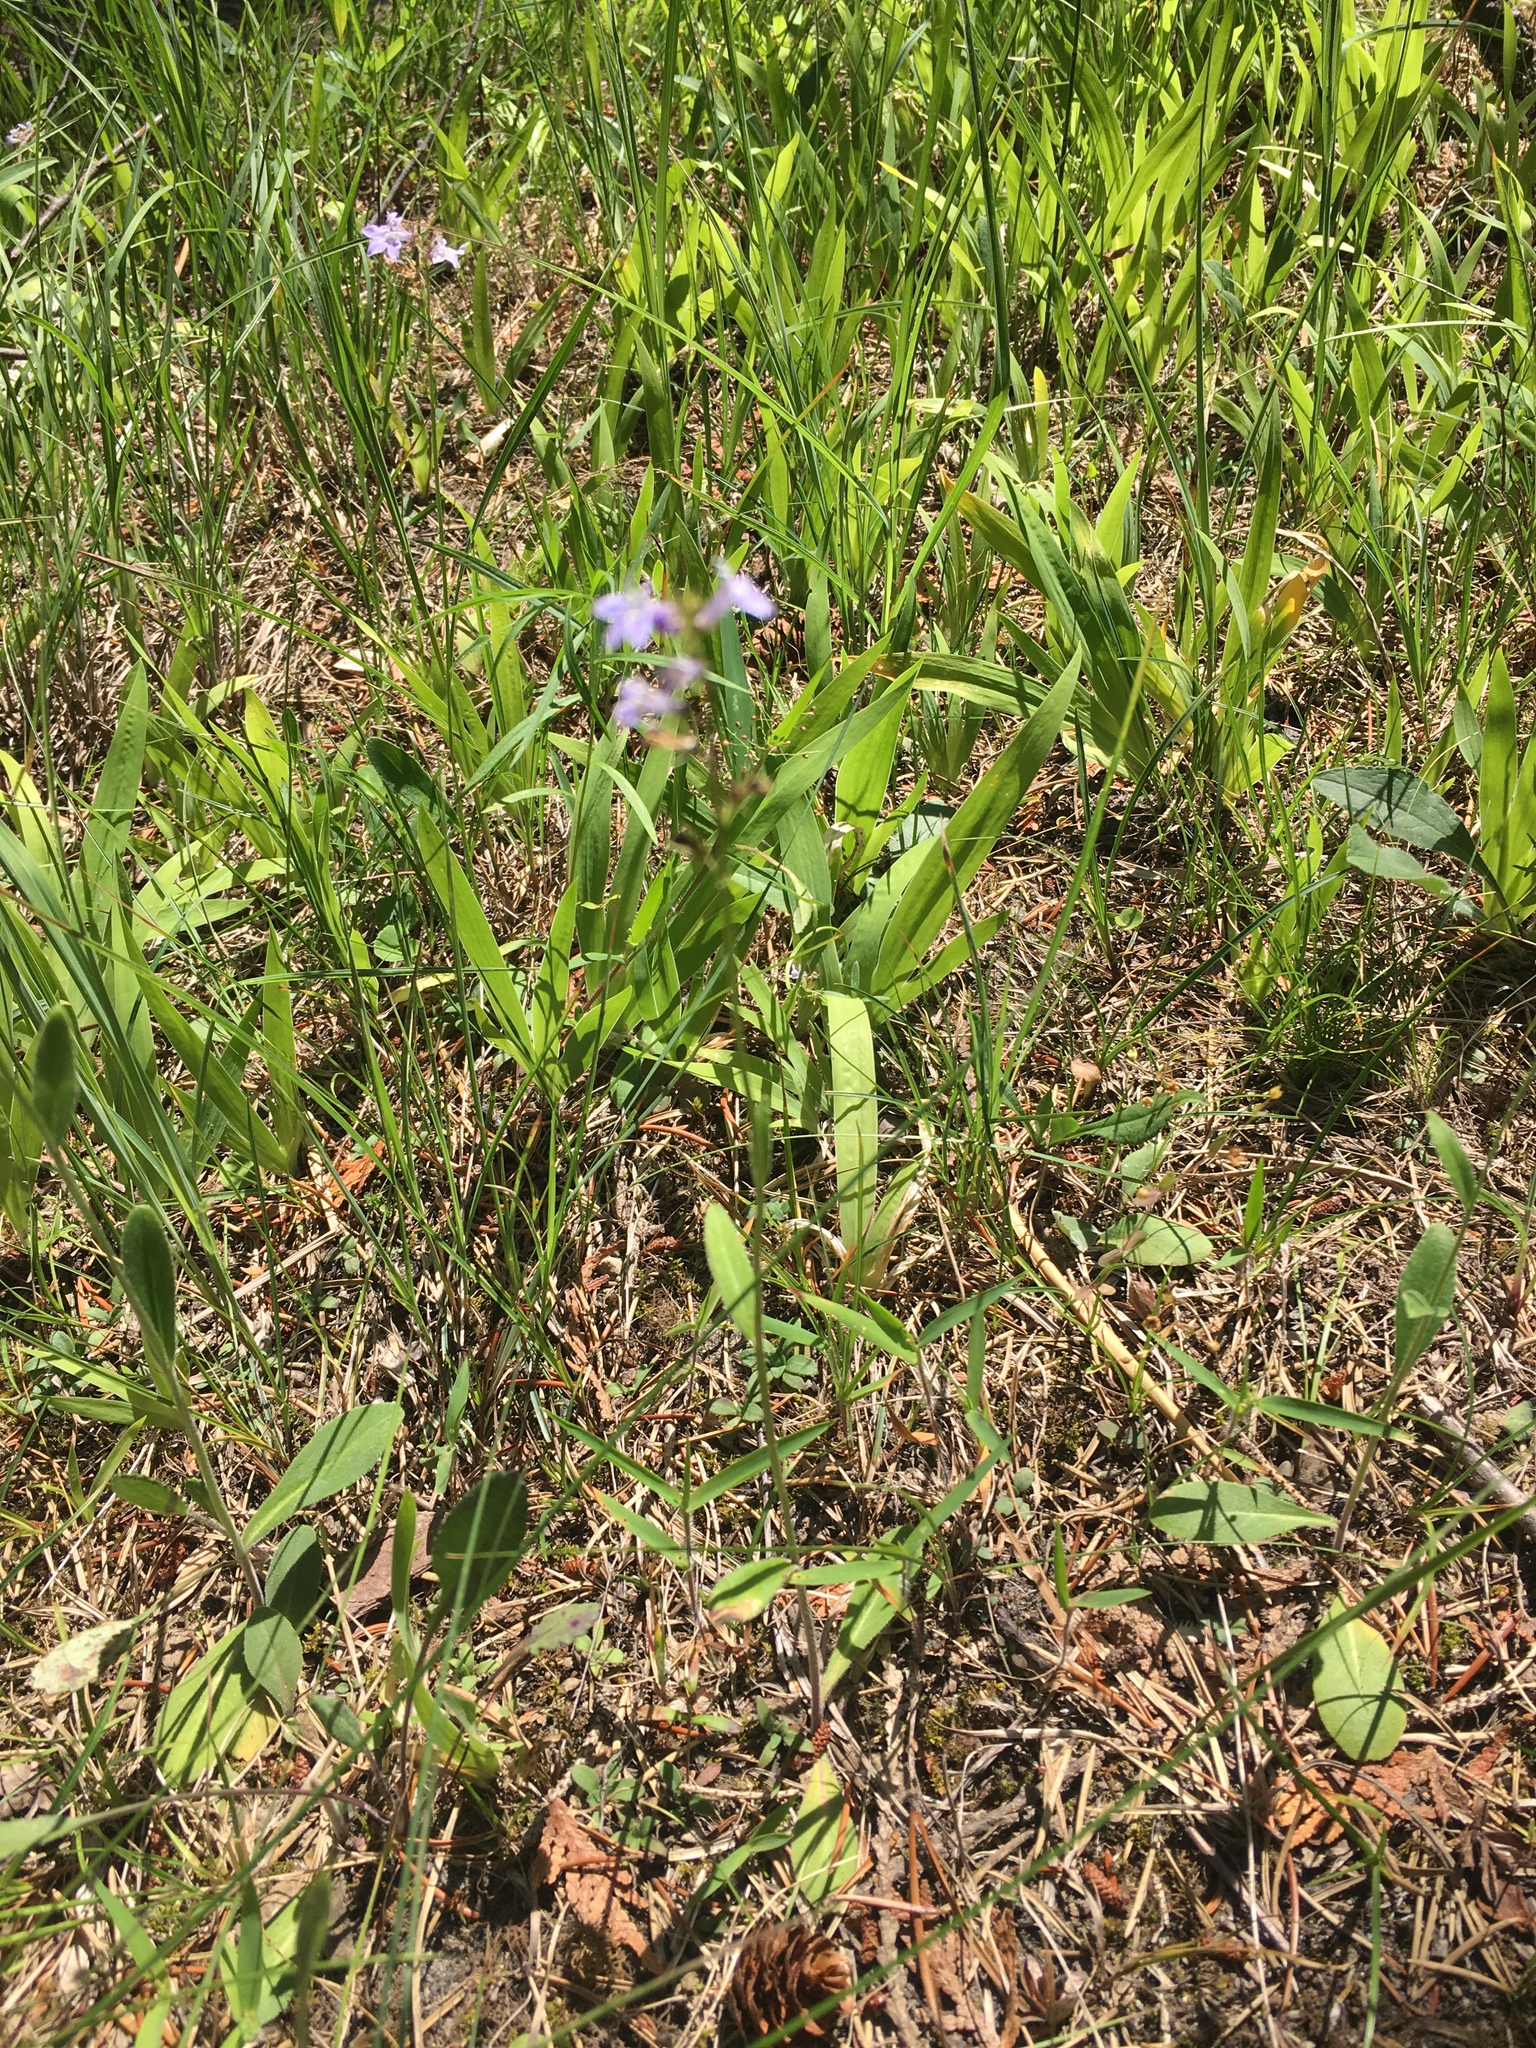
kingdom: Plantae
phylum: Tracheophyta
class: Magnoliopsida
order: Asterales
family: Campanulaceae
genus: Lobelia
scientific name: Lobelia kalmii
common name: Kalm's lobelia
